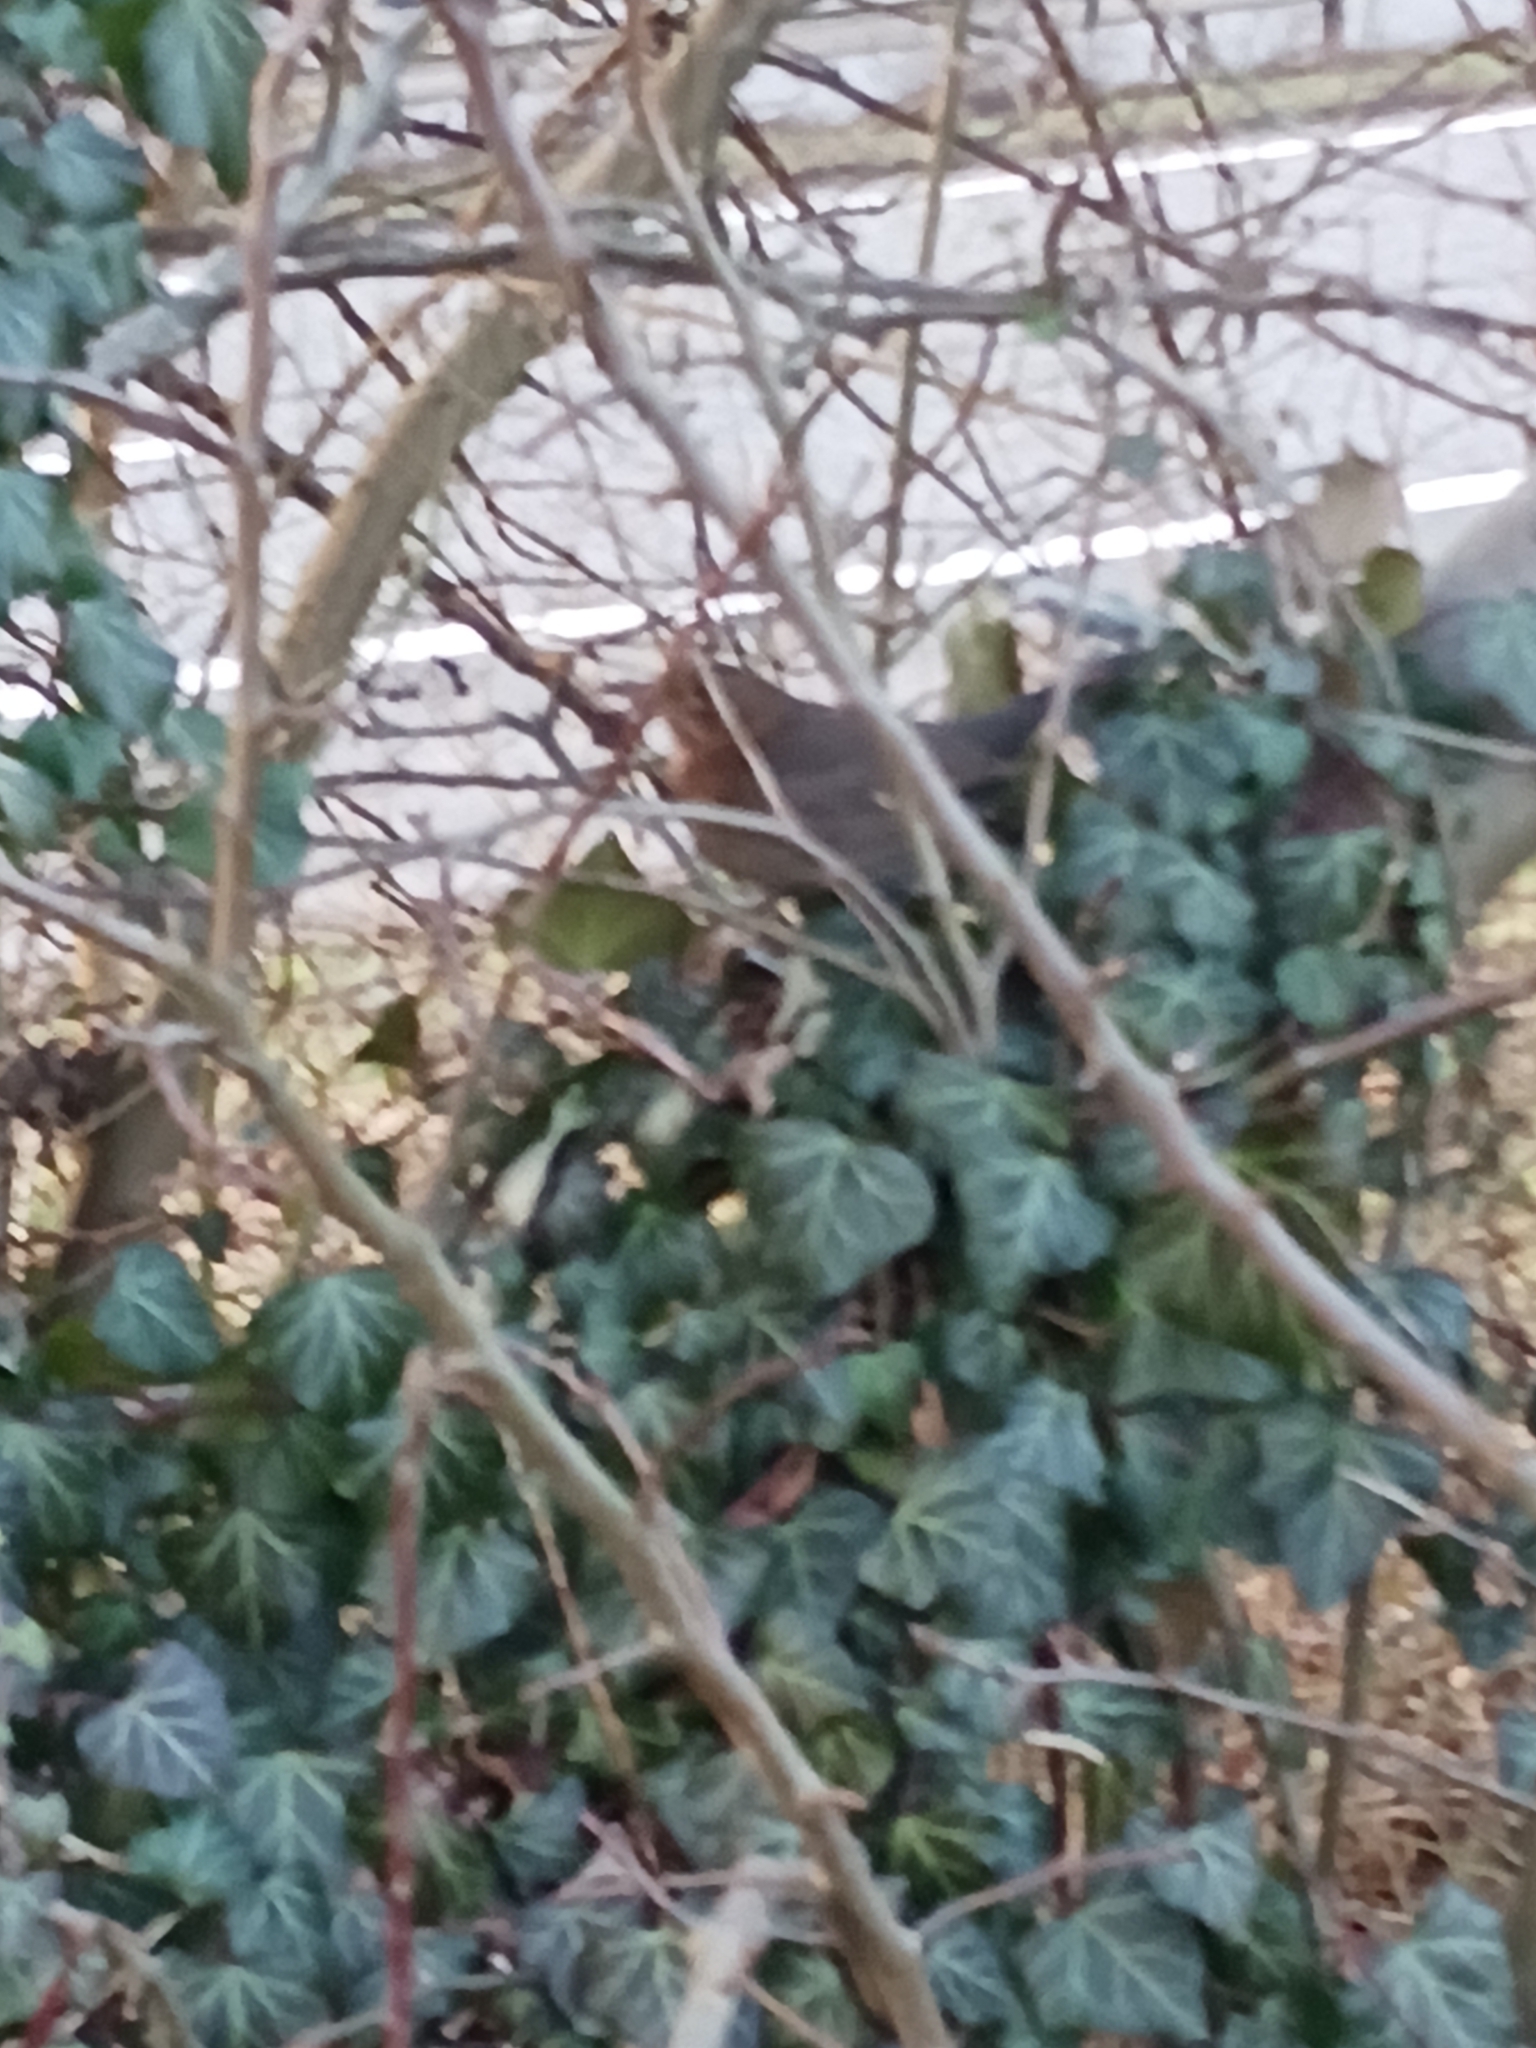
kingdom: Animalia
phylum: Chordata
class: Aves
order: Passeriformes
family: Turdidae
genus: Turdus
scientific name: Turdus merula
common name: Common blackbird
